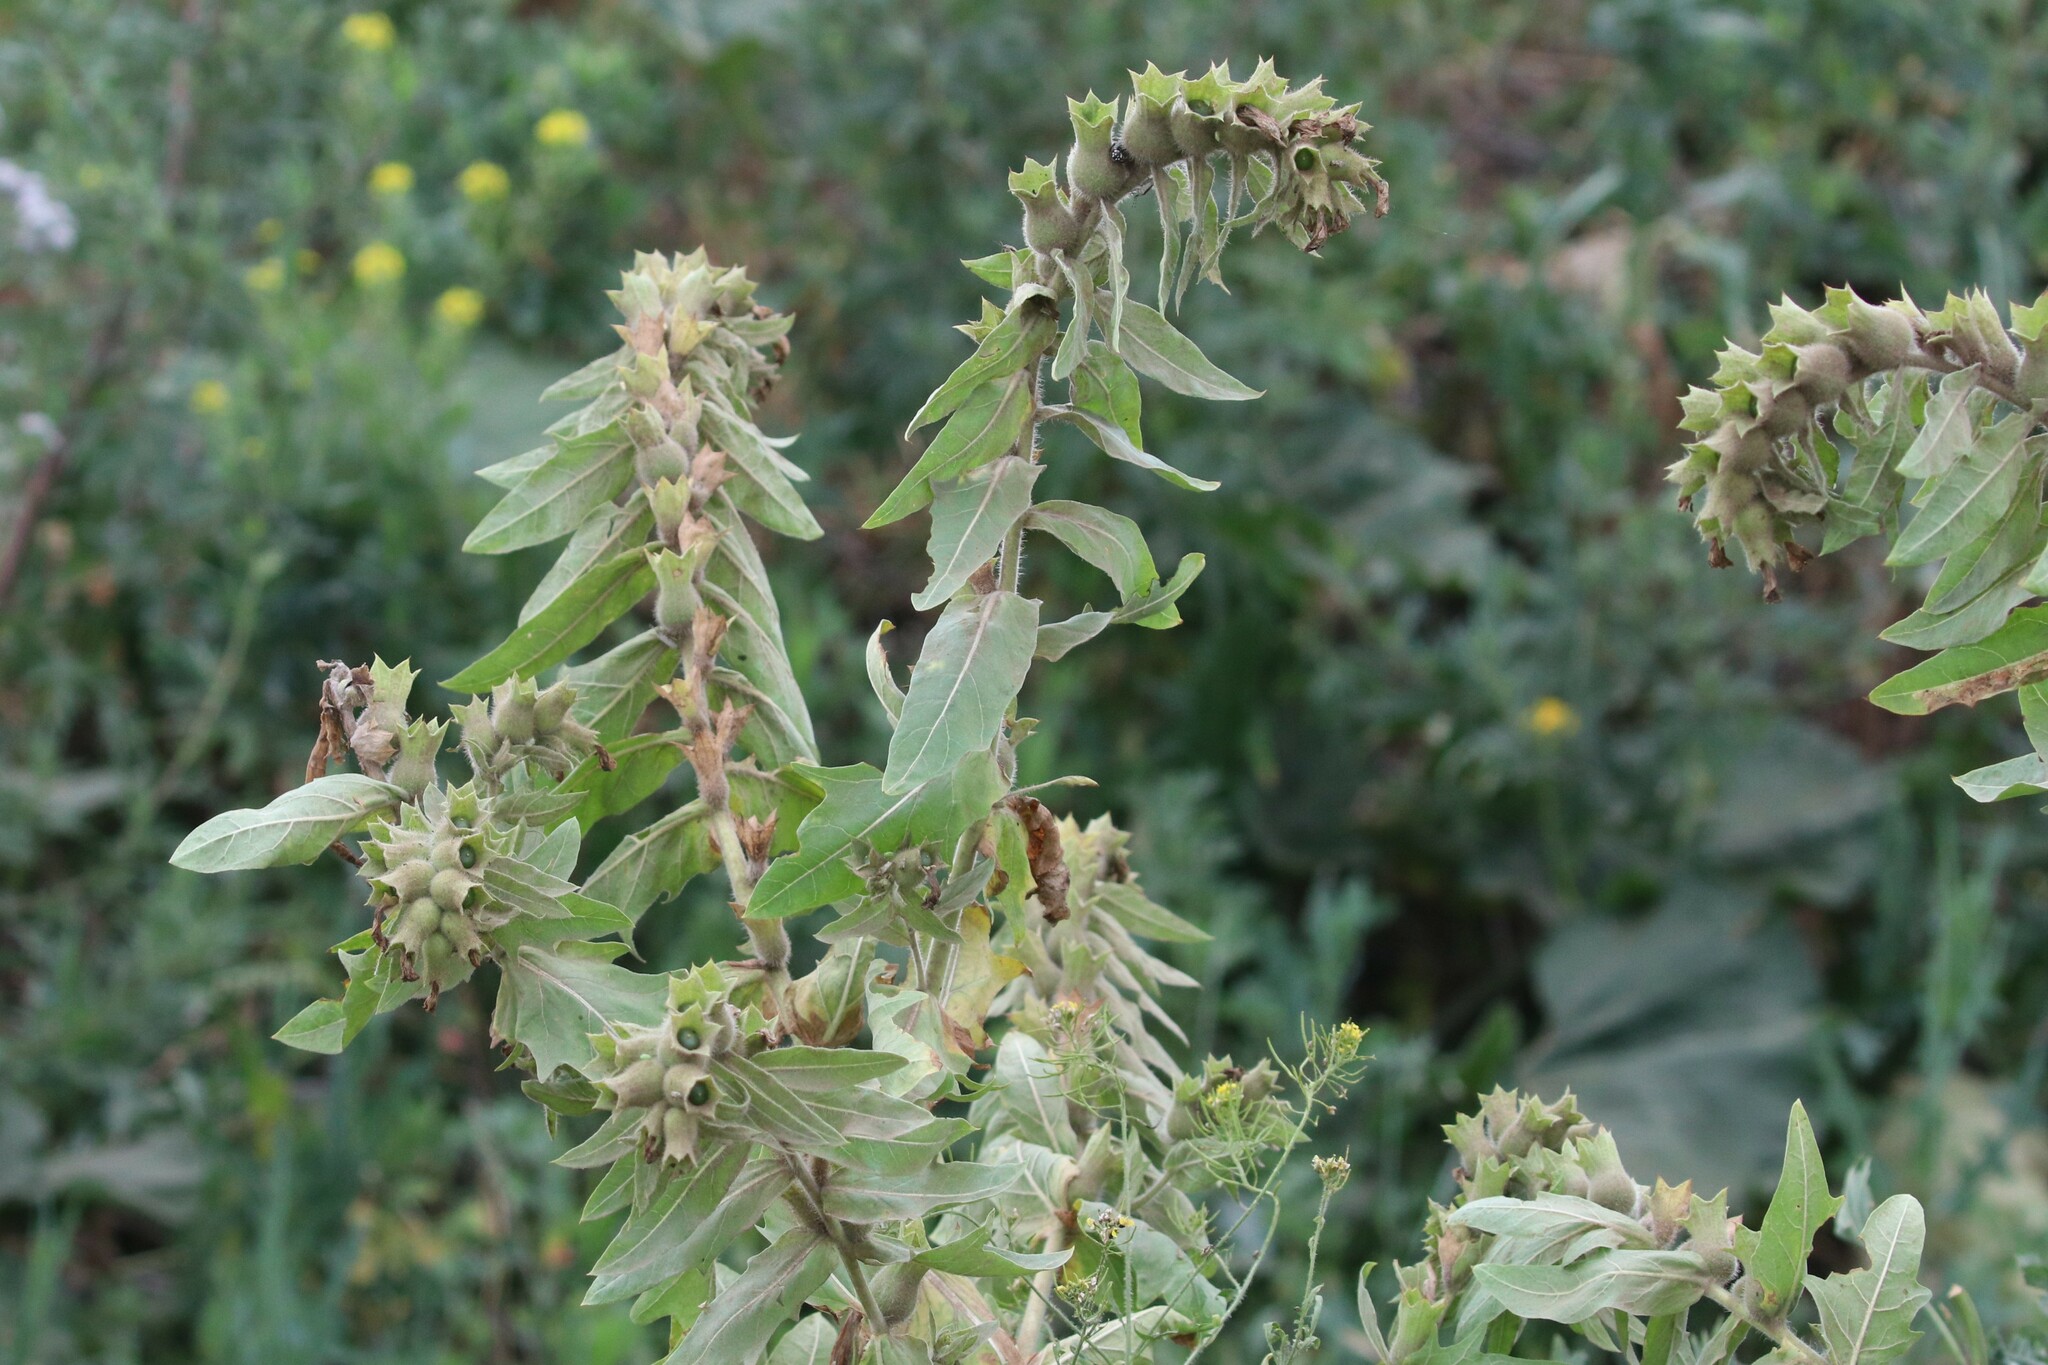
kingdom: Plantae
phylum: Tracheophyta
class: Magnoliopsida
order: Solanales
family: Solanaceae
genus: Hyoscyamus
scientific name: Hyoscyamus niger
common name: Henbane
